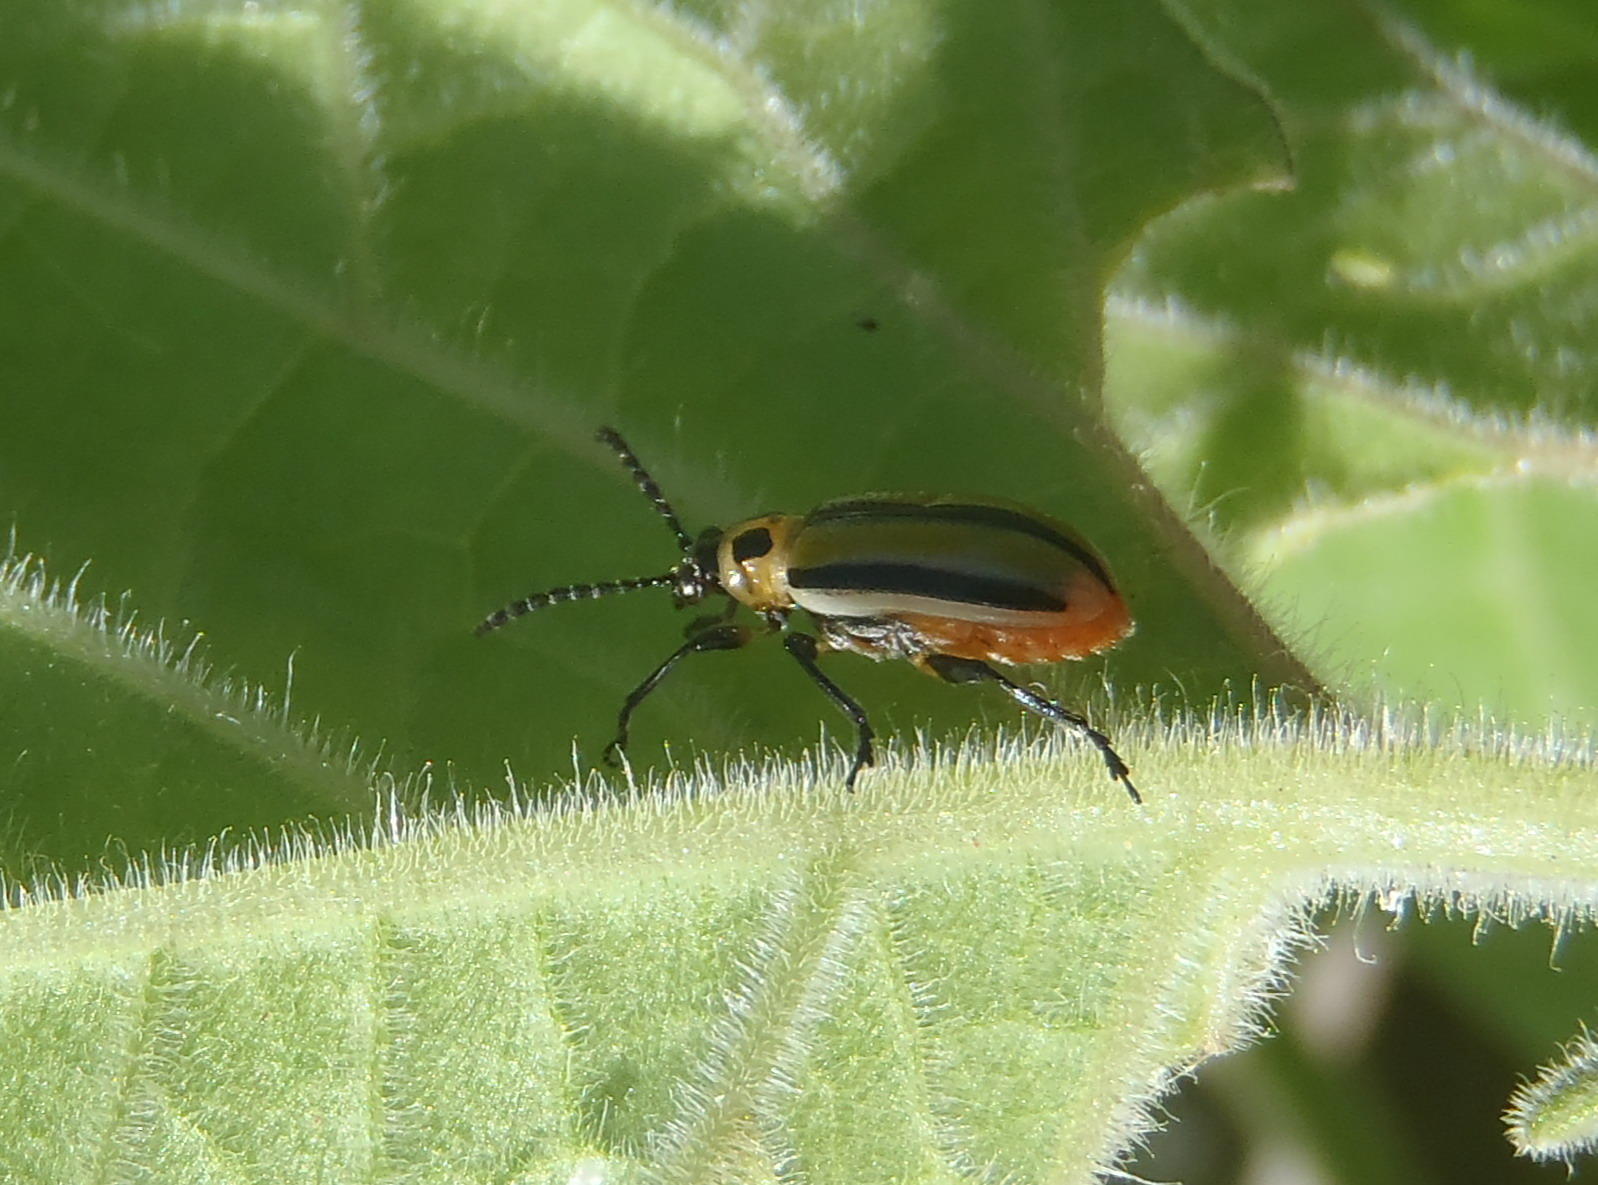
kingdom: Animalia
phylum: Arthropoda
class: Insecta
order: Coleoptera
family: Chrysomelidae
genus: Lema
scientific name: Lema daturaphila
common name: Leaf beetle
